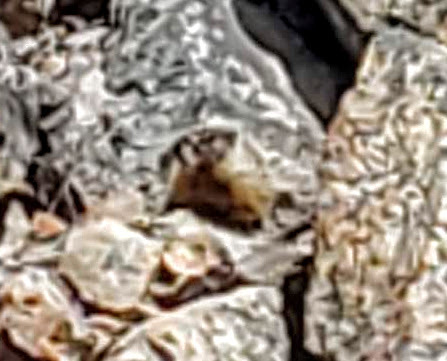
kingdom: Animalia
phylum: Chordata
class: Mammalia
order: Rodentia
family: Sciuridae
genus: Marmota
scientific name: Marmota flaviventris
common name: Yellow-bellied marmot
